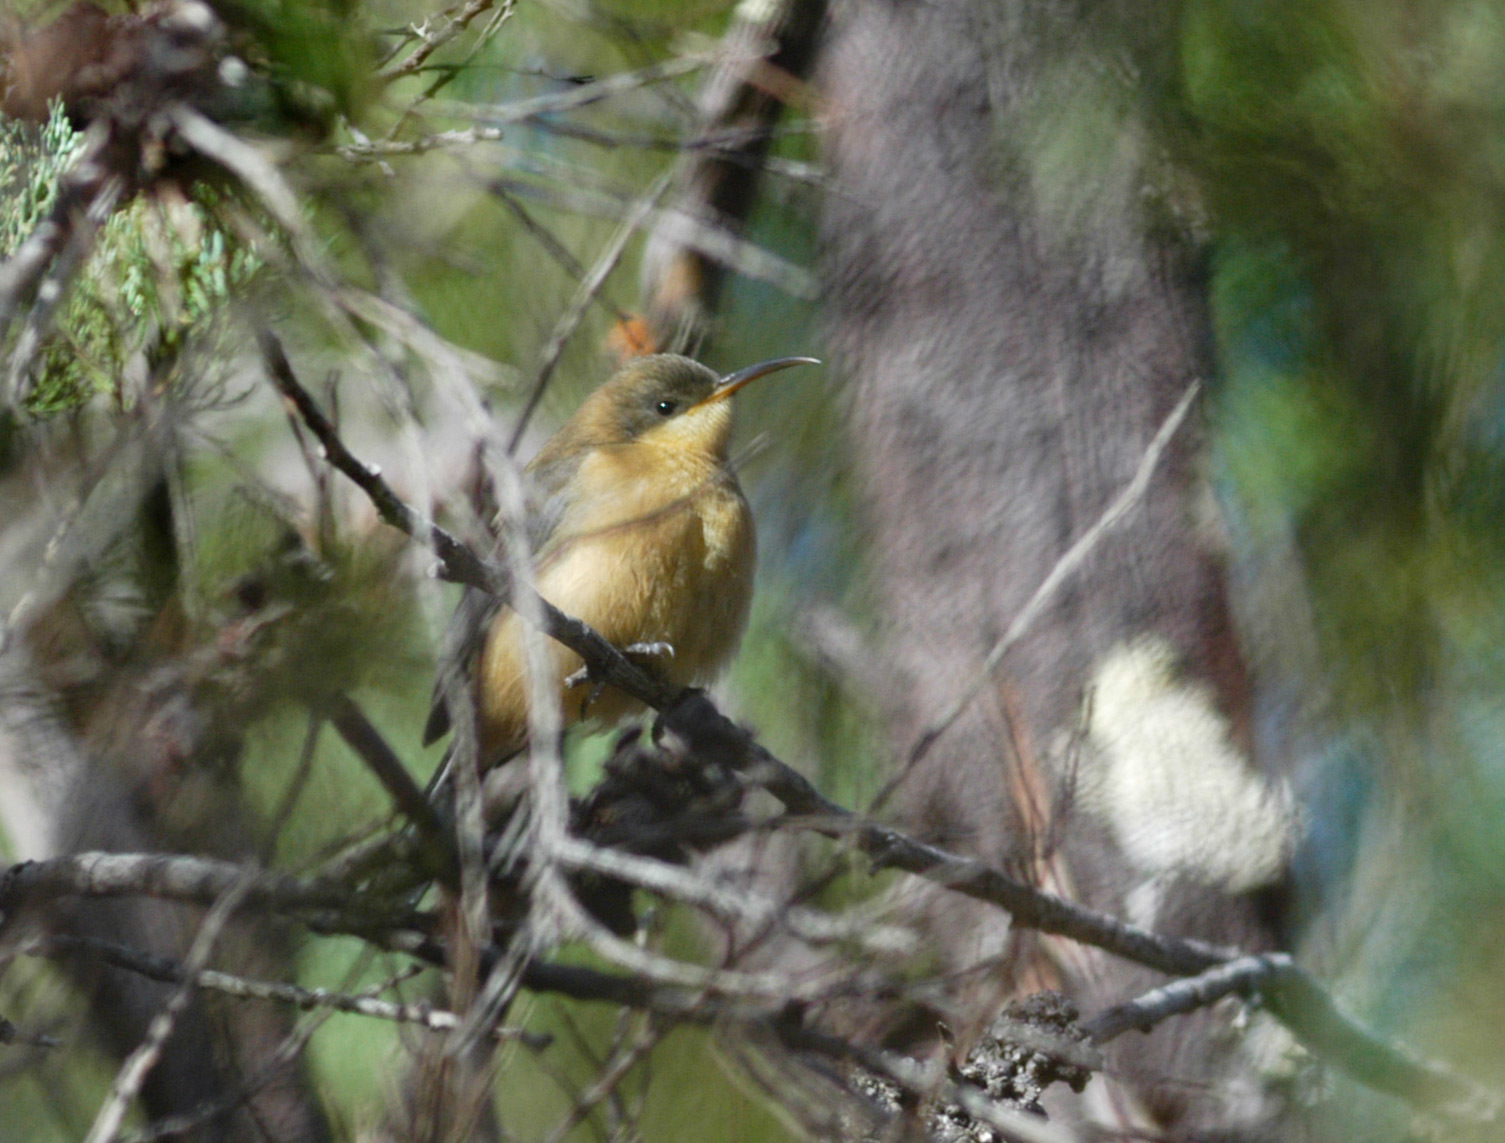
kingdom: Animalia
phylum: Chordata
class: Aves
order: Passeriformes
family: Meliphagidae
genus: Acanthorhynchus
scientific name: Acanthorhynchus tenuirostris
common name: Eastern spinebill
